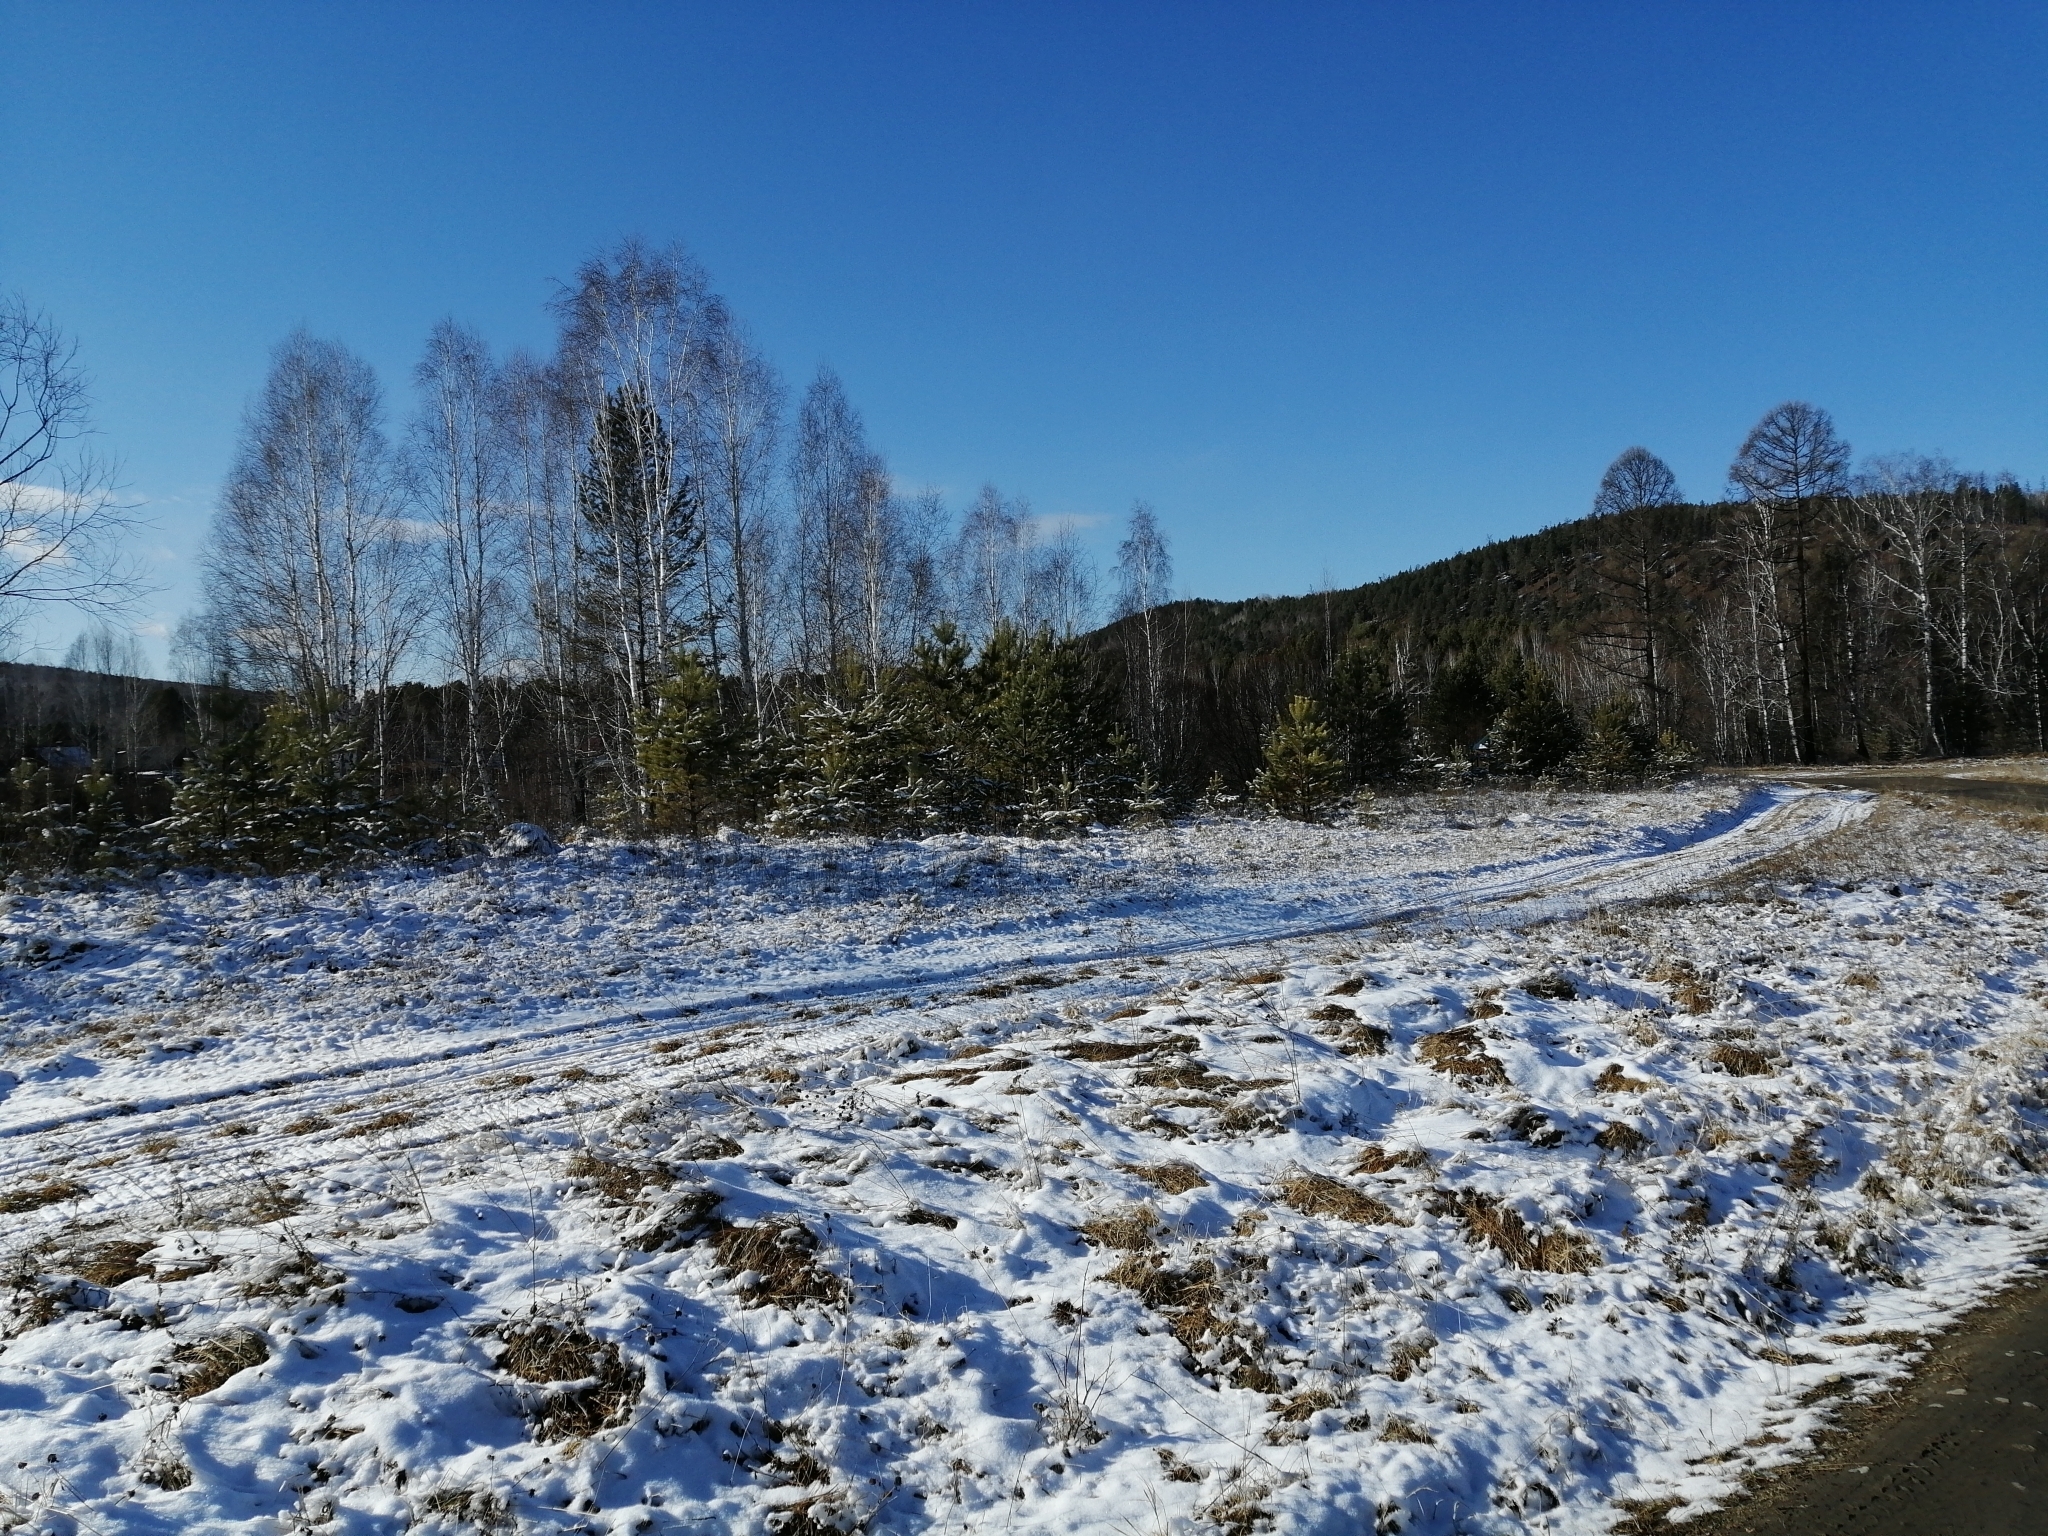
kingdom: Plantae
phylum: Tracheophyta
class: Pinopsida
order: Pinales
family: Pinaceae
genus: Pinus
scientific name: Pinus sylvestris
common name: Scots pine
